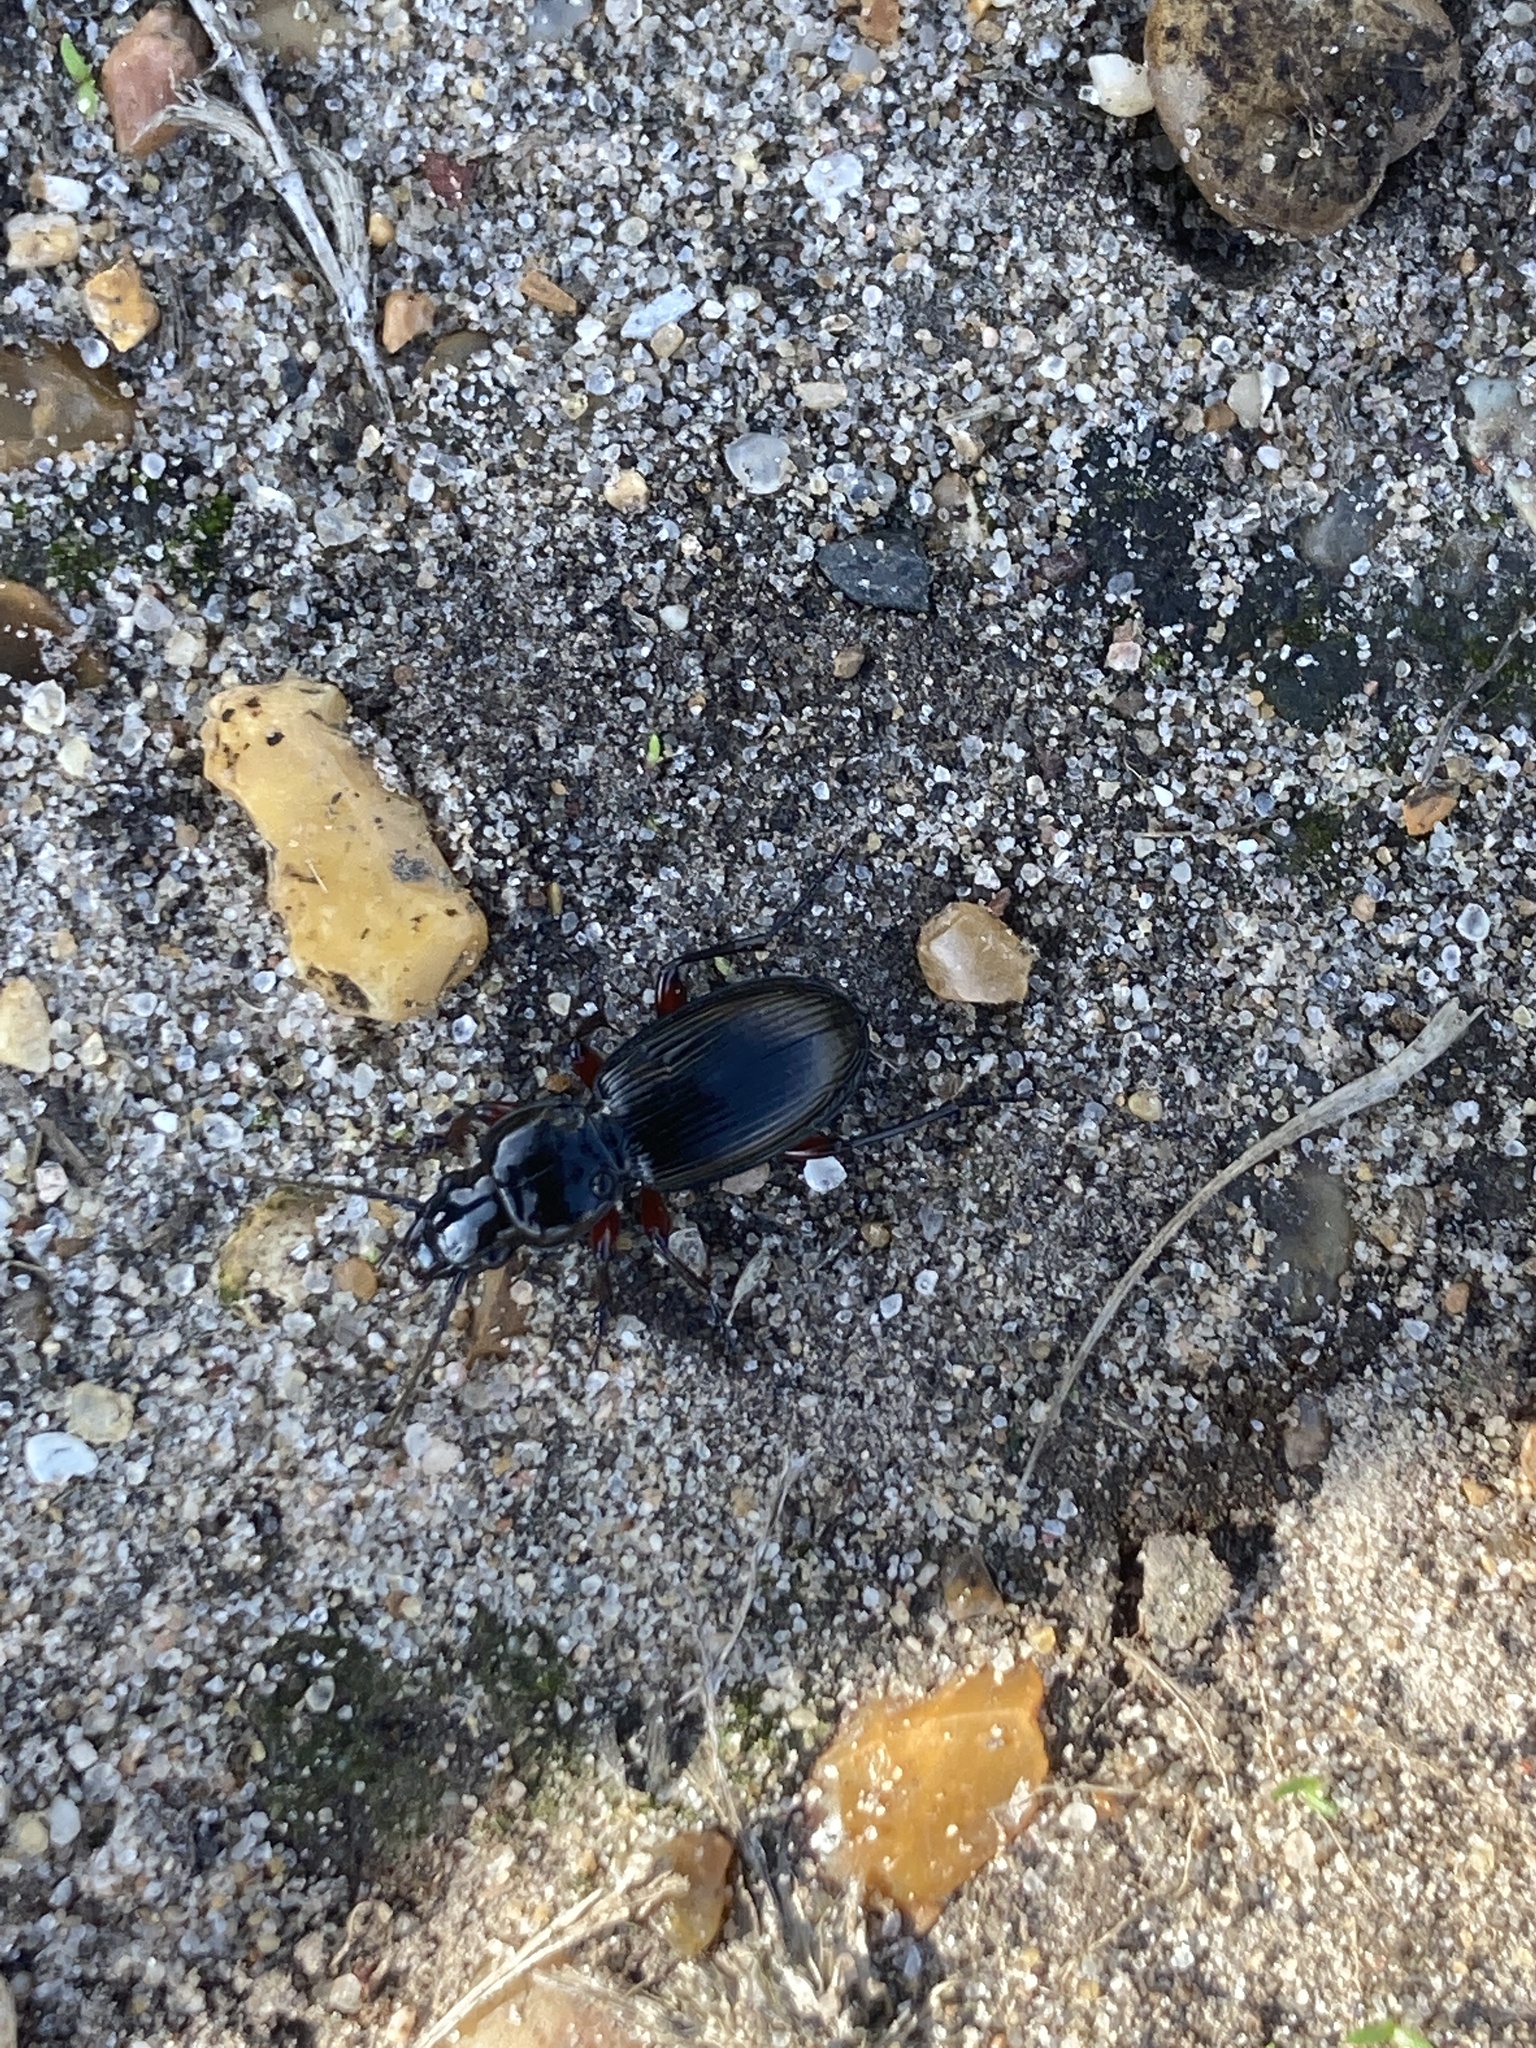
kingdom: Animalia
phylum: Arthropoda
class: Insecta
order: Coleoptera
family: Carabidae
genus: Pterostichus
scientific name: Pterostichus madidus
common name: Black clock
